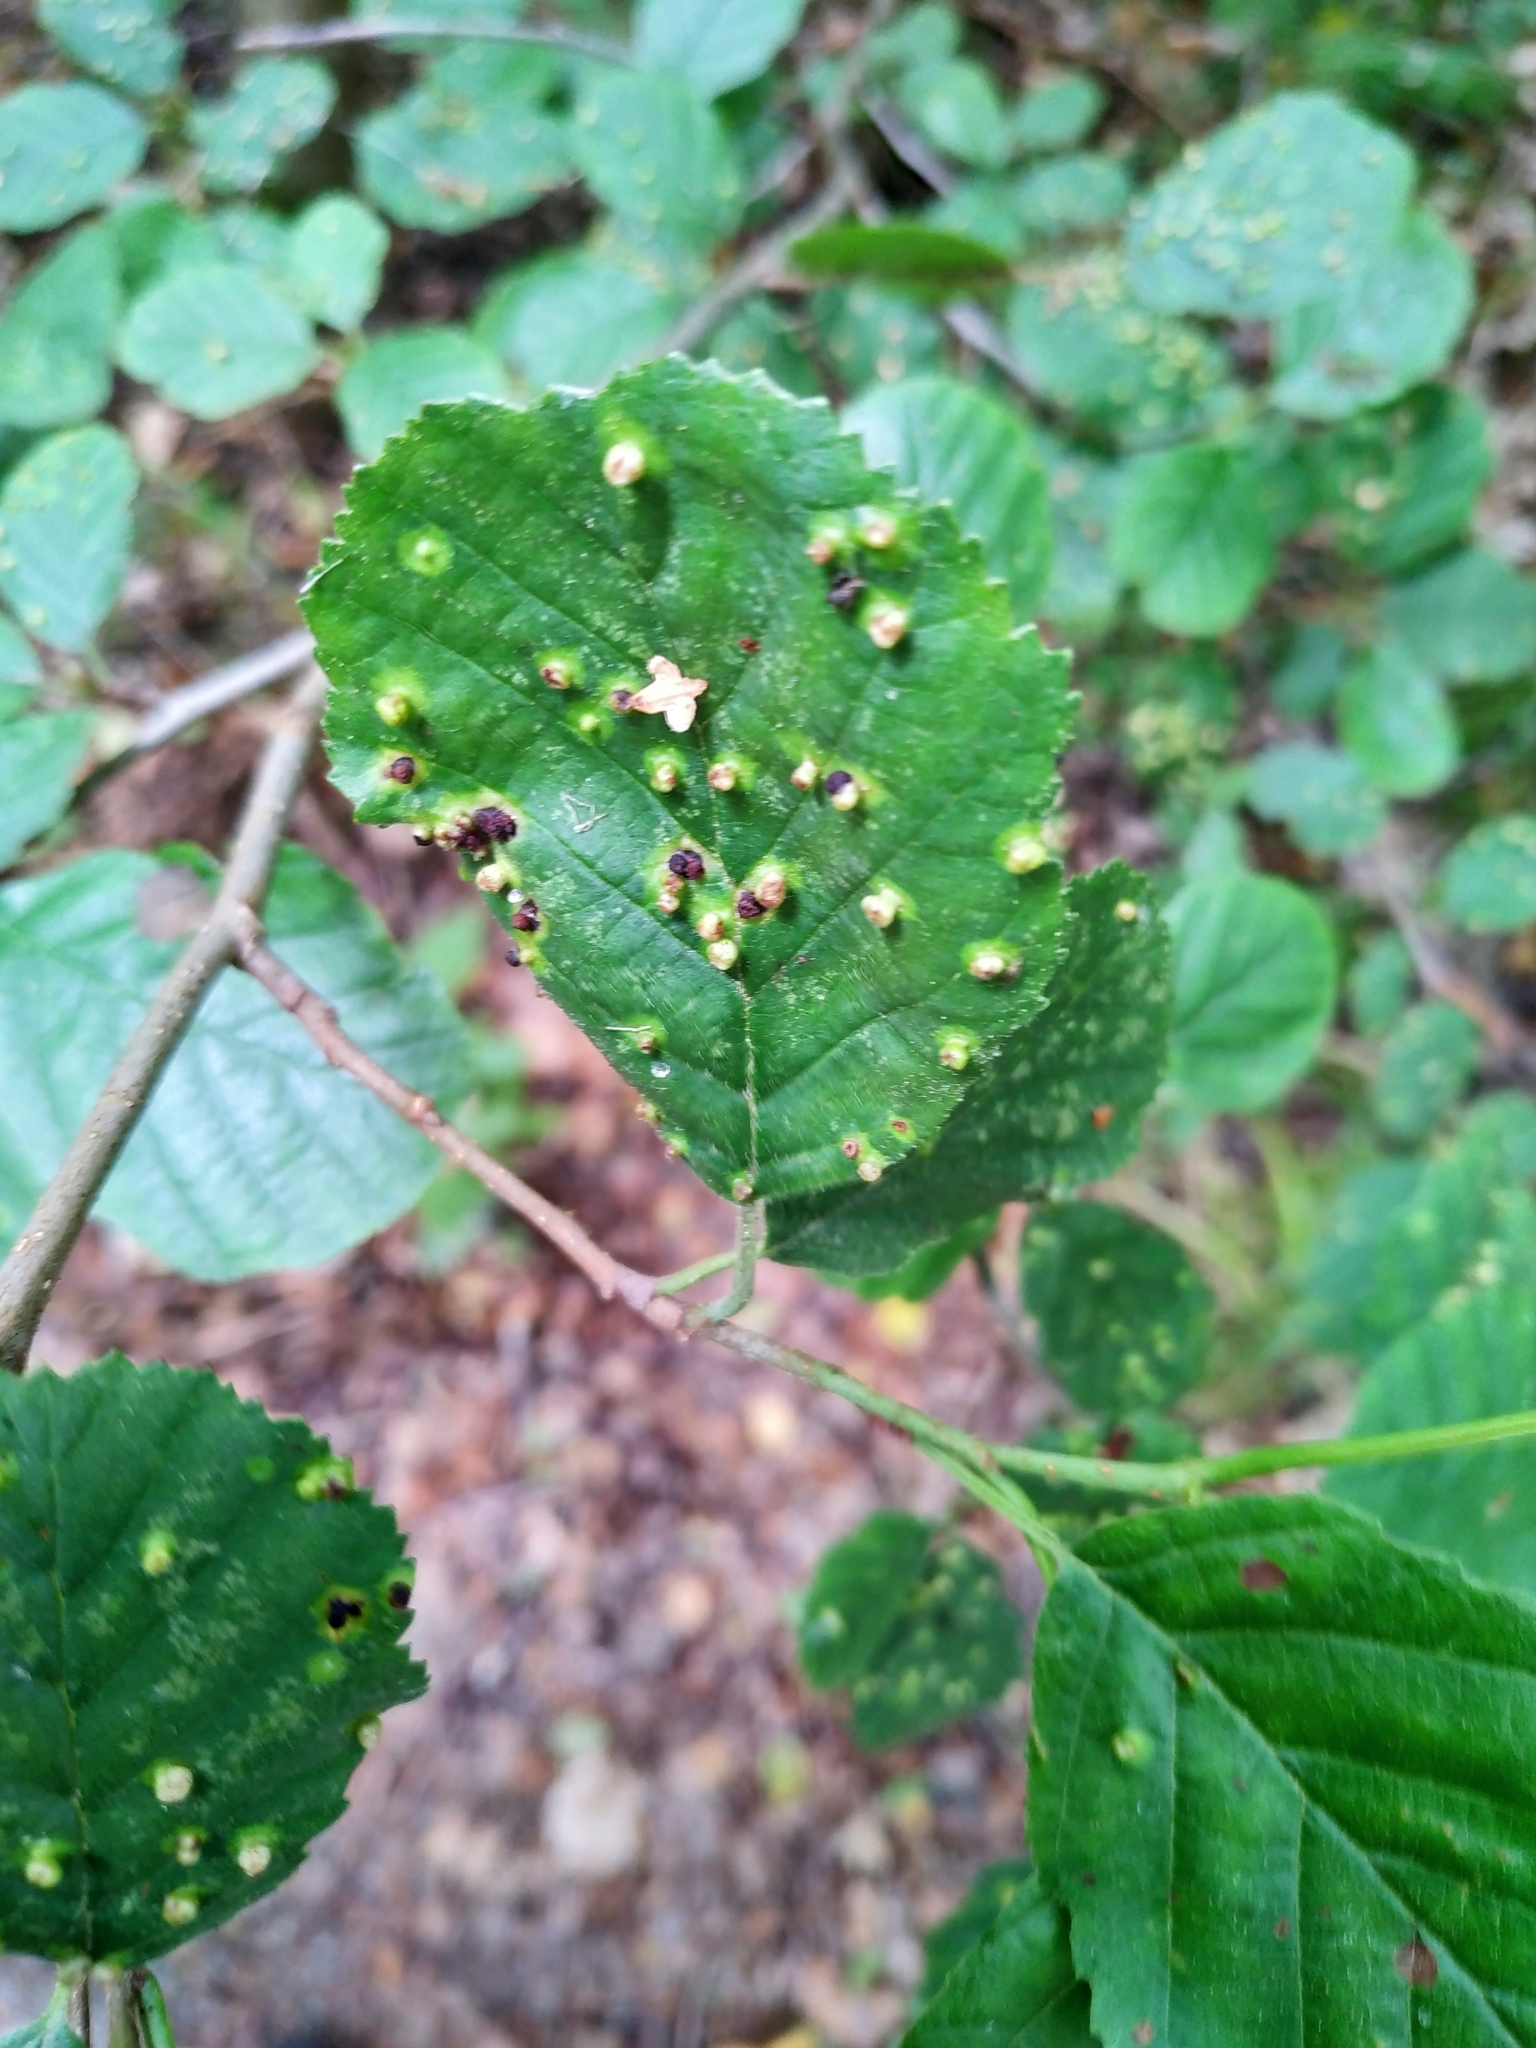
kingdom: Animalia
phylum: Arthropoda
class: Arachnida
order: Trombidiformes
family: Eriophyidae
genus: Eriophyes
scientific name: Eriophyes laevis
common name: Alder leaf gall mite
